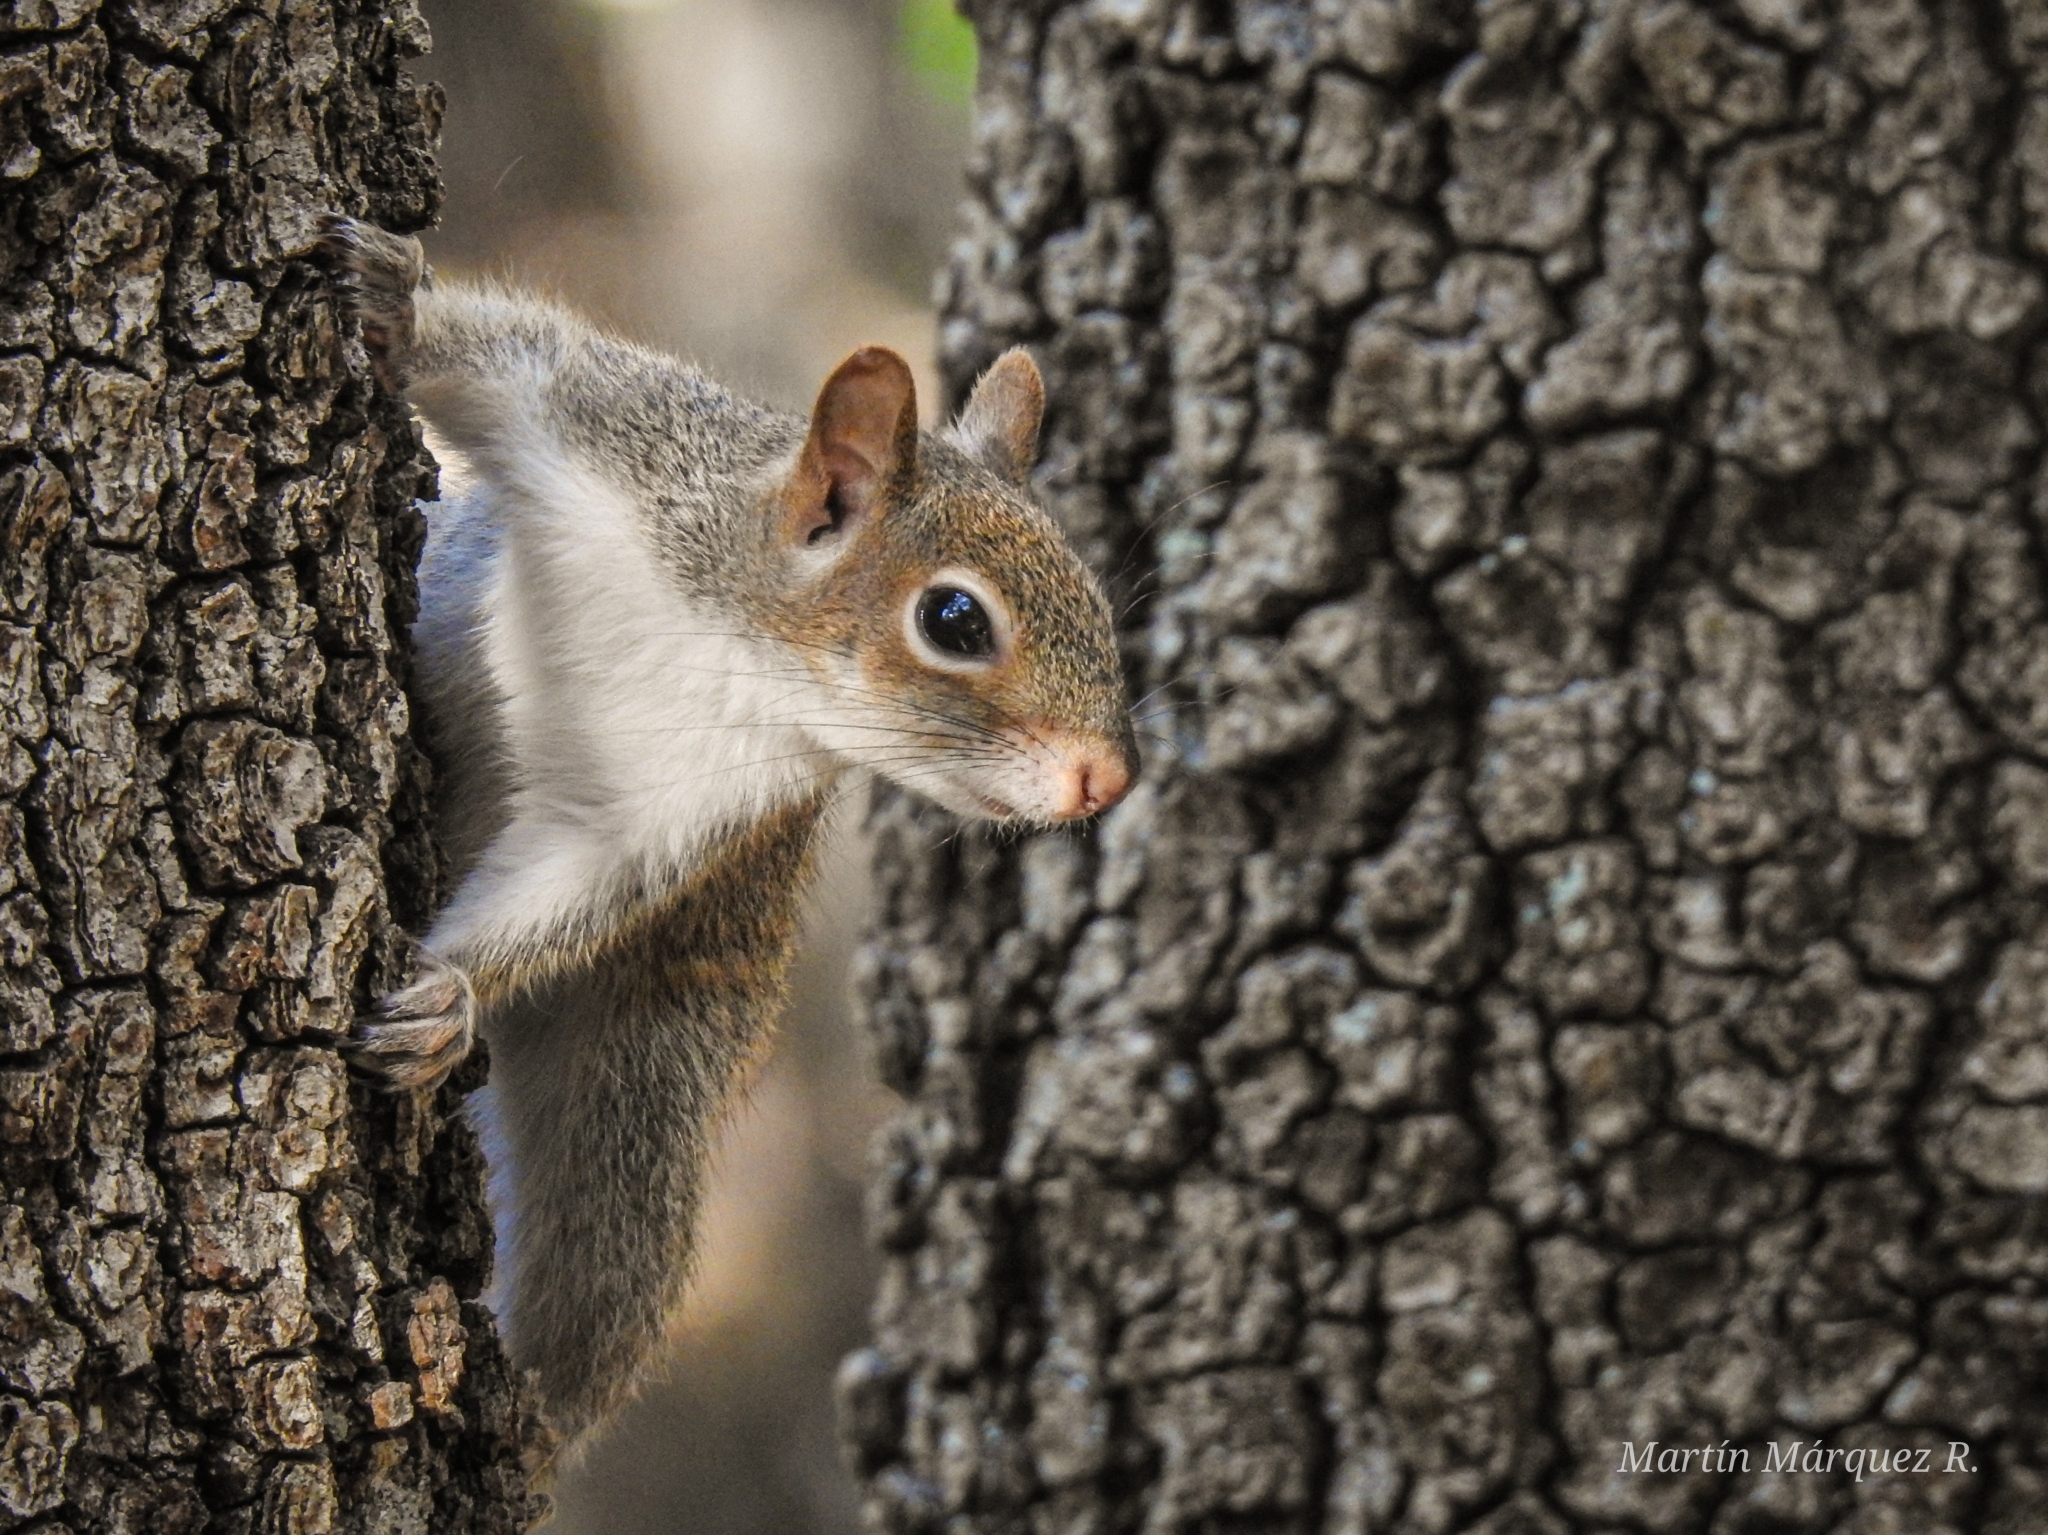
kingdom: Animalia
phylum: Chordata
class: Mammalia
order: Rodentia
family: Sciuridae
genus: Sciurus
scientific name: Sciurus alleni
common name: Allen's squirrel
